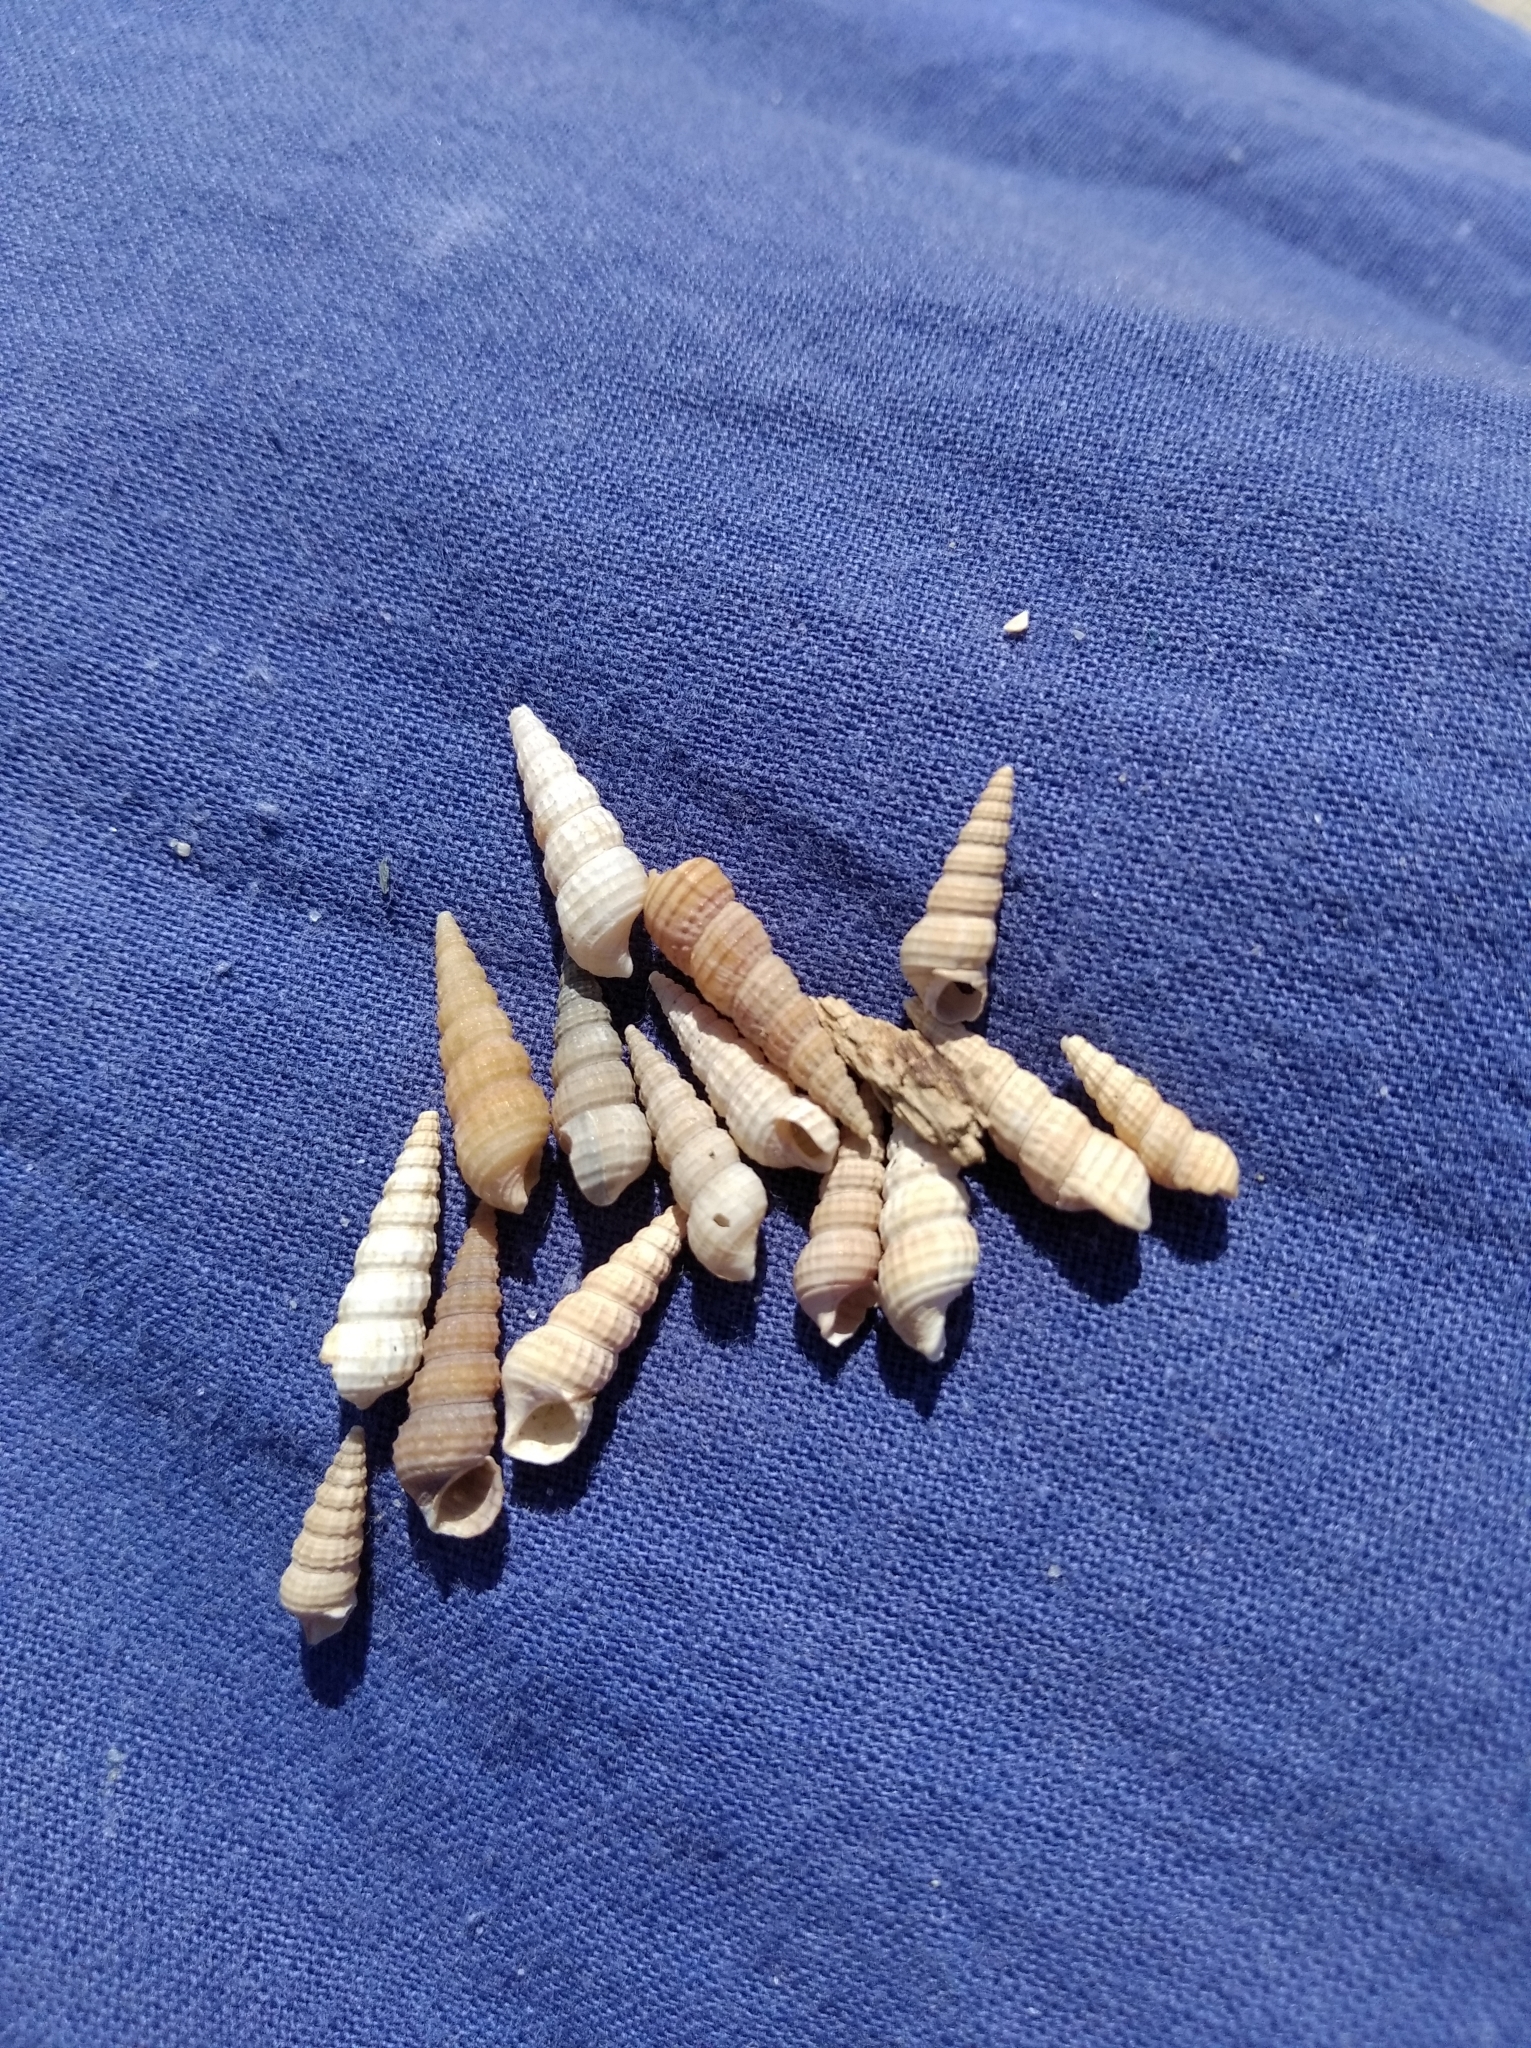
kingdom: Animalia
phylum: Mollusca
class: Gastropoda
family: Cerithiidae
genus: Bittium
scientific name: Bittium reticulatum
